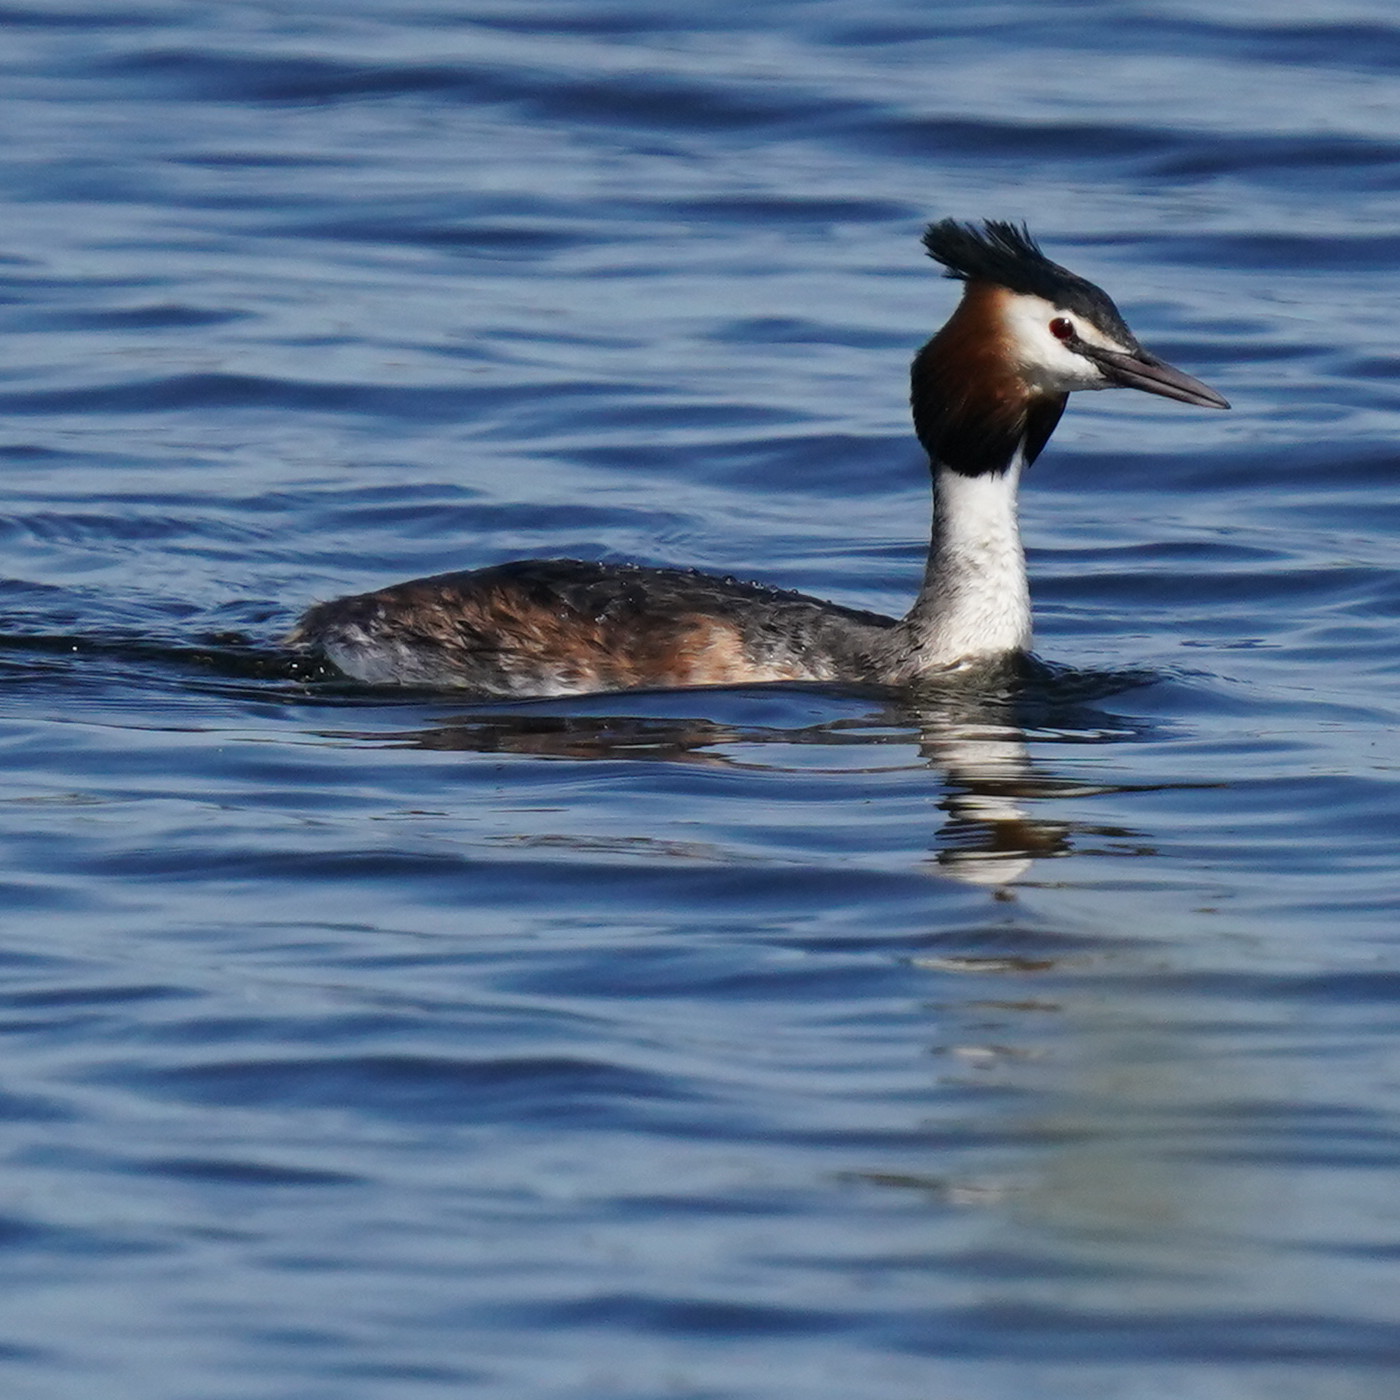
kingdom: Animalia
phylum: Chordata
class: Aves
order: Podicipediformes
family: Podicipedidae
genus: Podiceps
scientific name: Podiceps cristatus
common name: Great crested grebe
